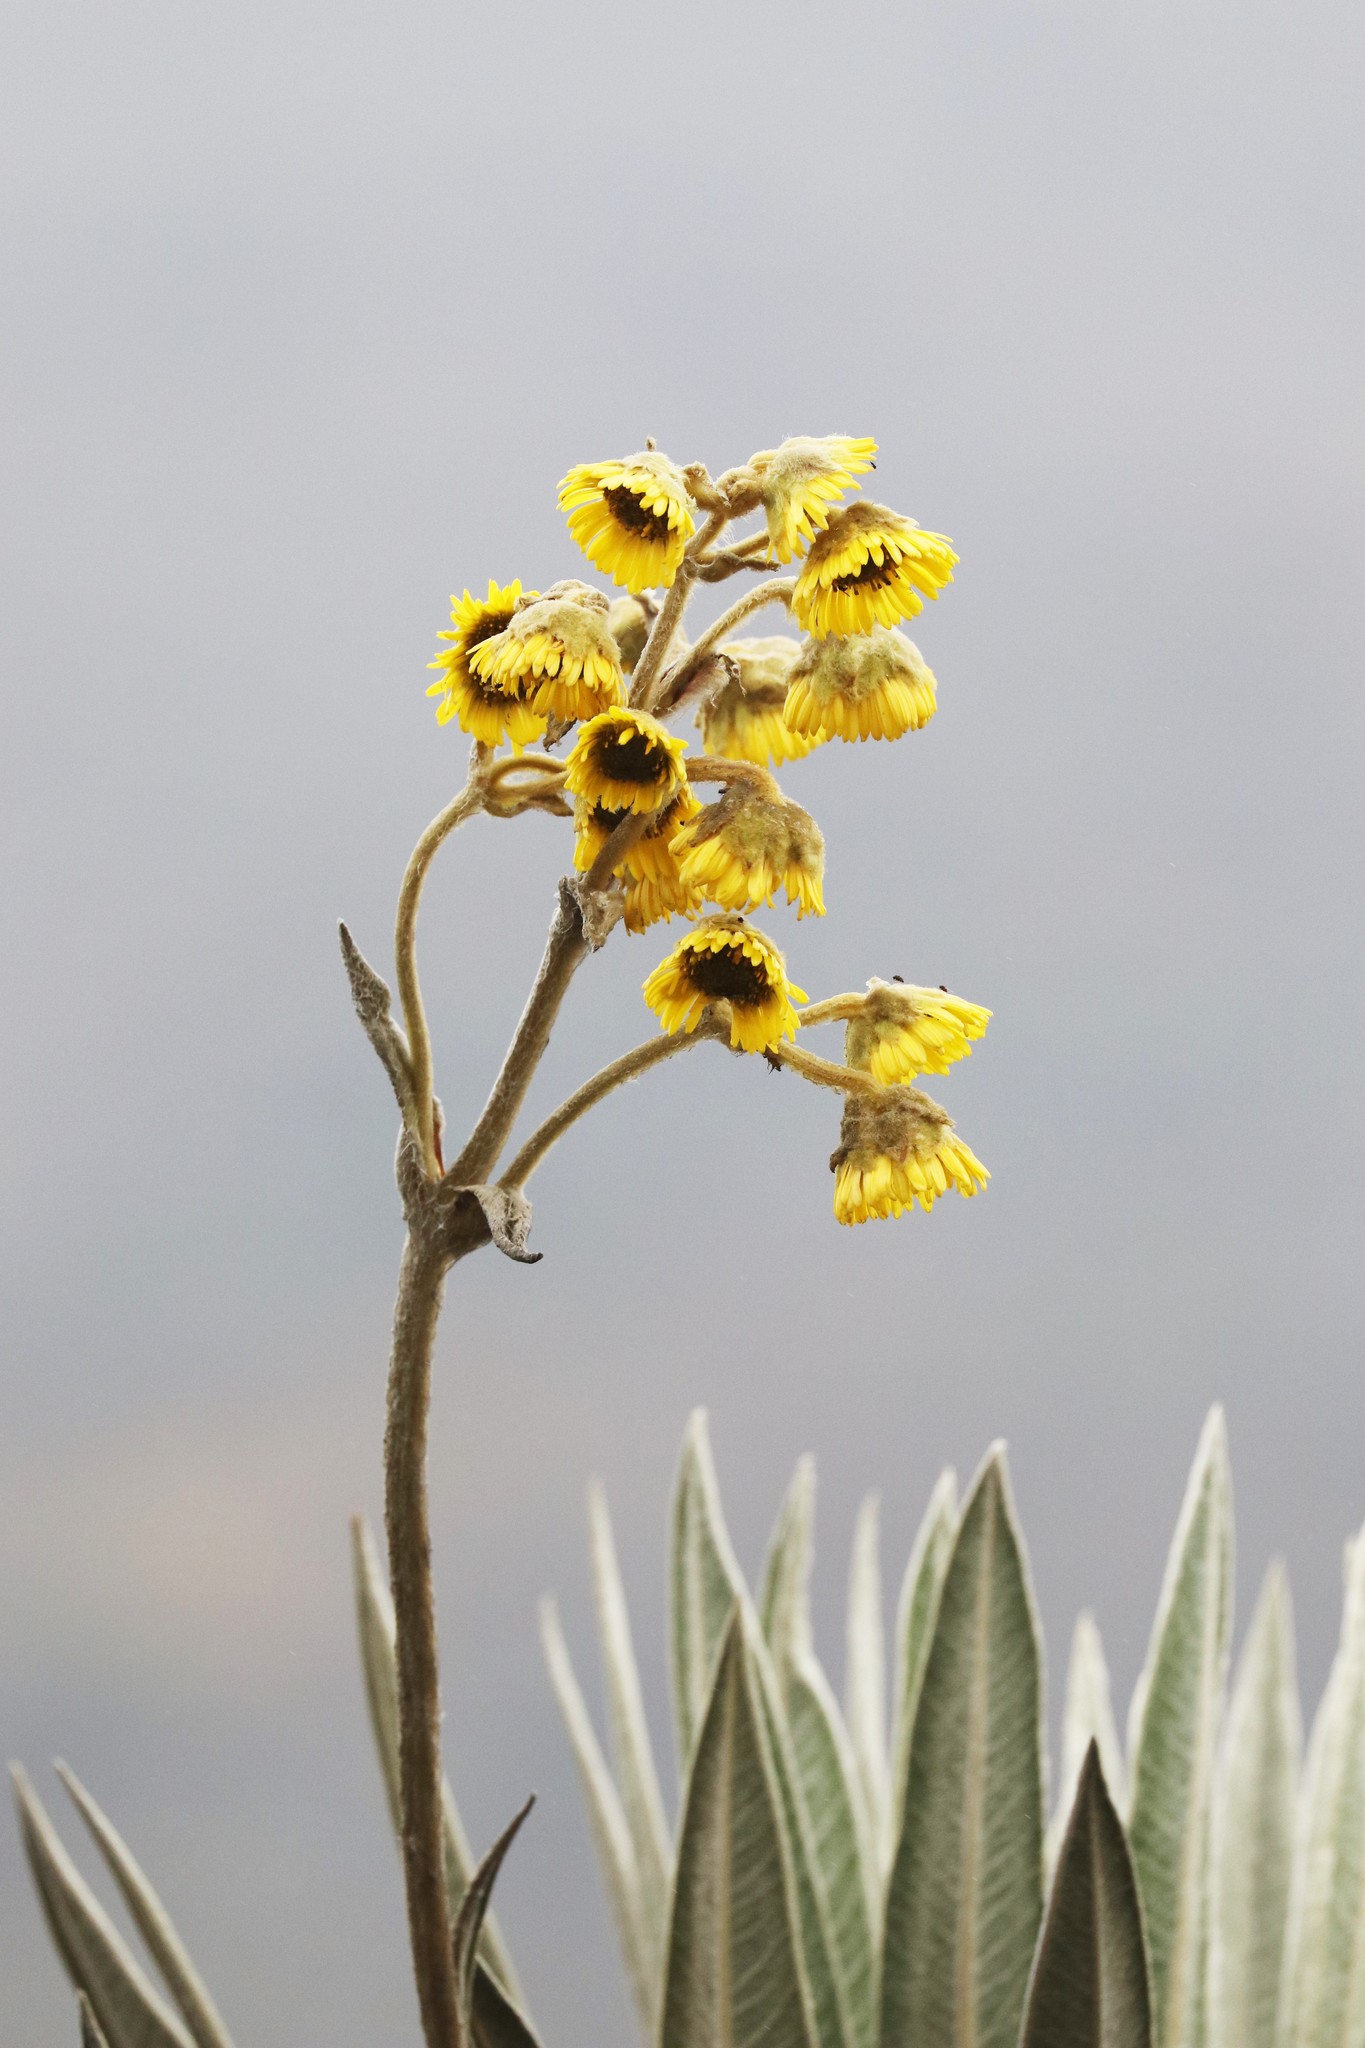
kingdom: Plantae
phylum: Tracheophyta
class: Magnoliopsida
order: Asterales
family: Asteraceae
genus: Espeletia
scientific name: Espeletia grandiflora
